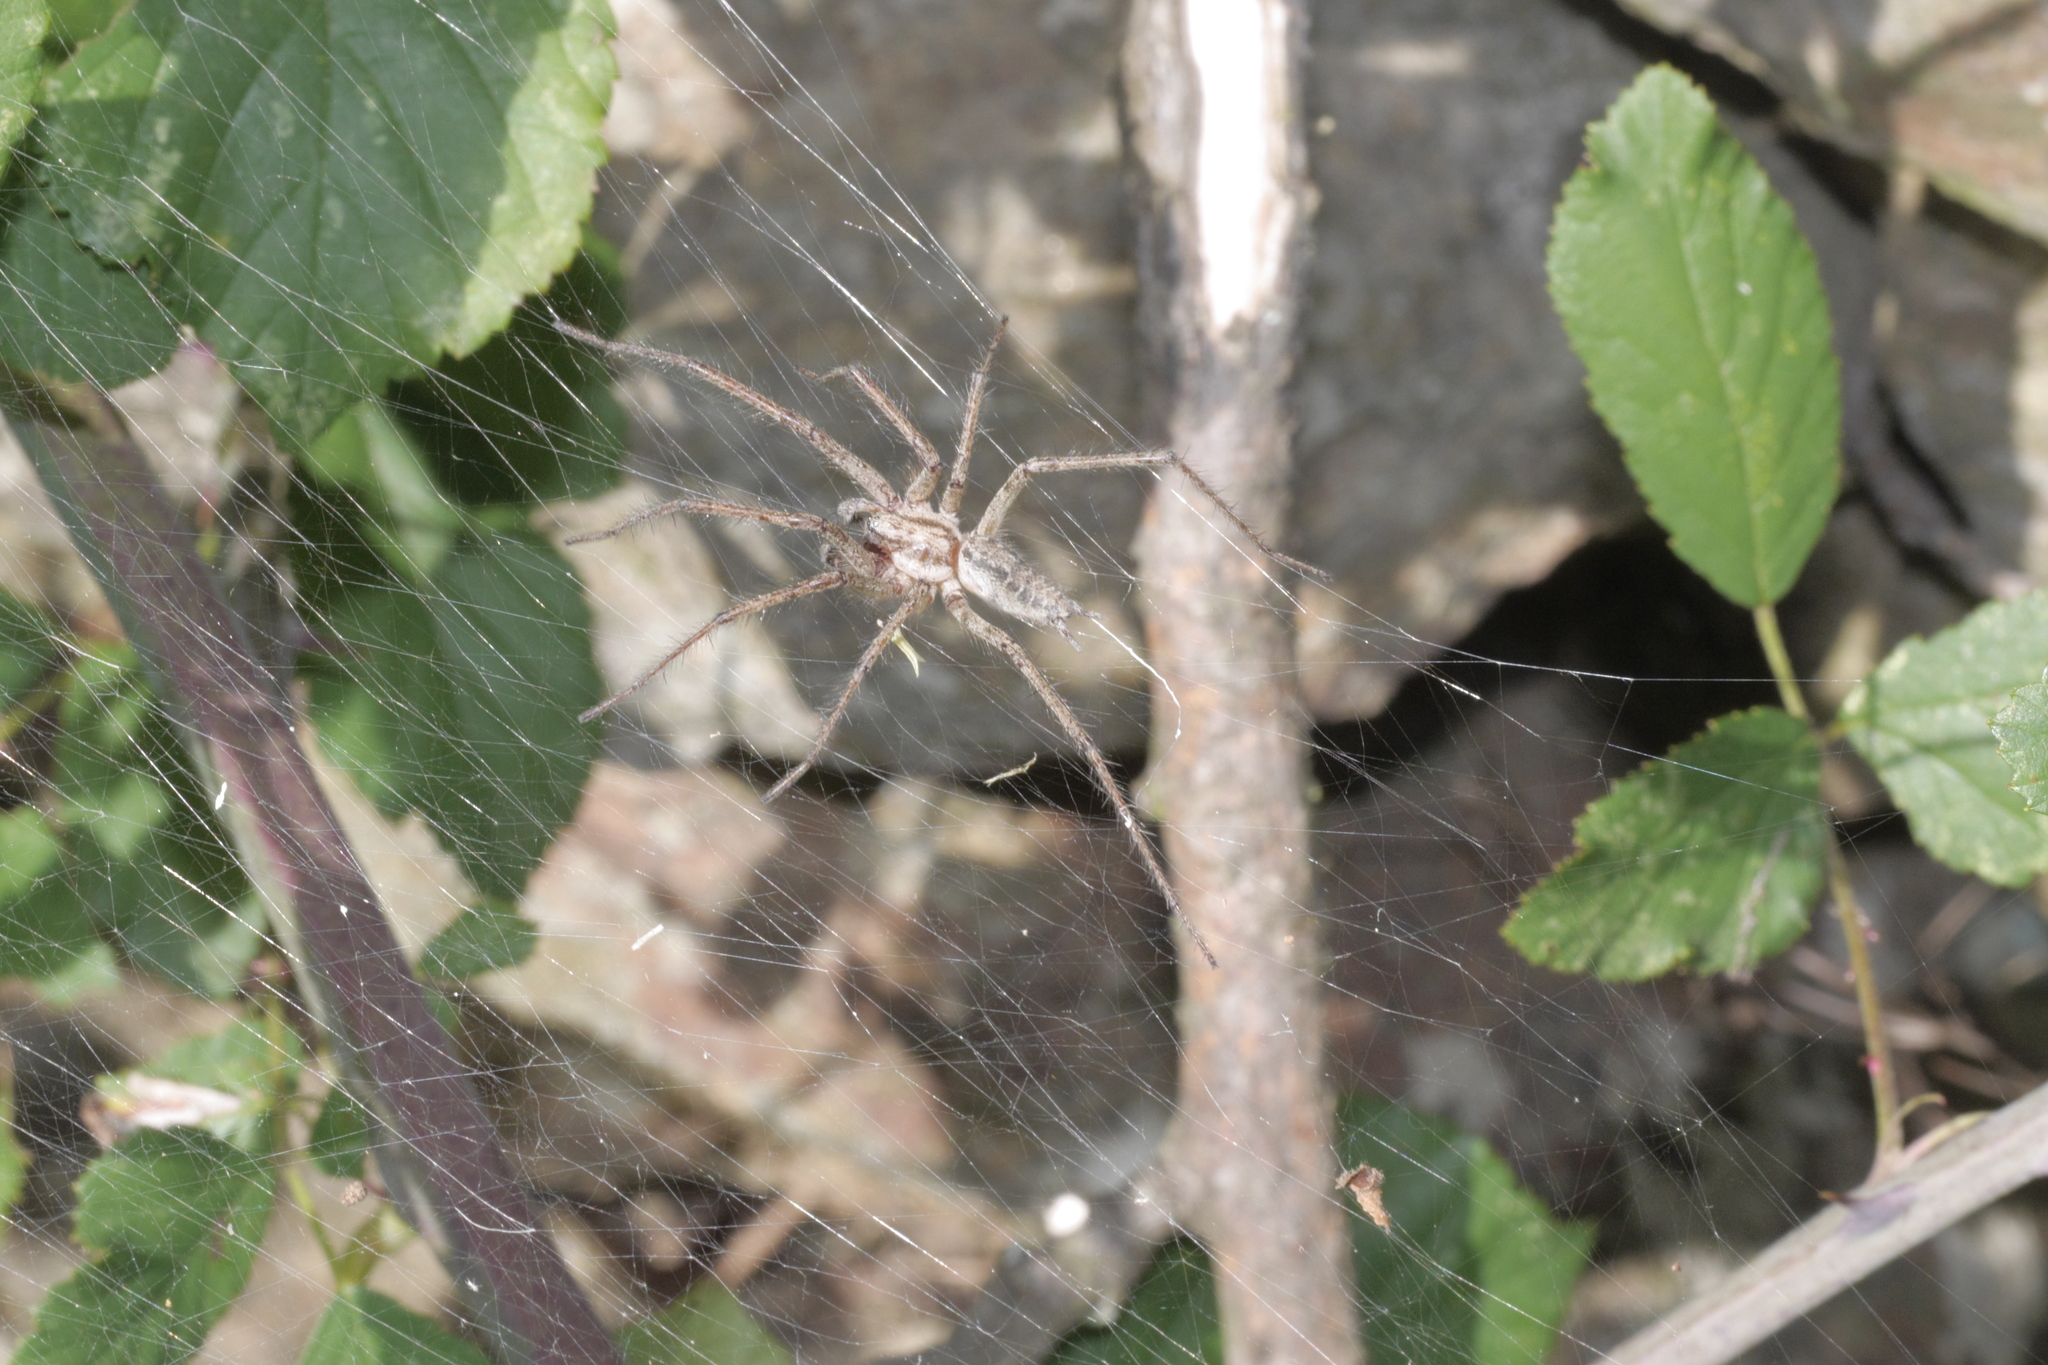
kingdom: Animalia
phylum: Arthropoda
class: Arachnida
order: Araneae
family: Agelenidae
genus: Agelena
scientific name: Agelena labyrinthica
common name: Labyrinth spider
